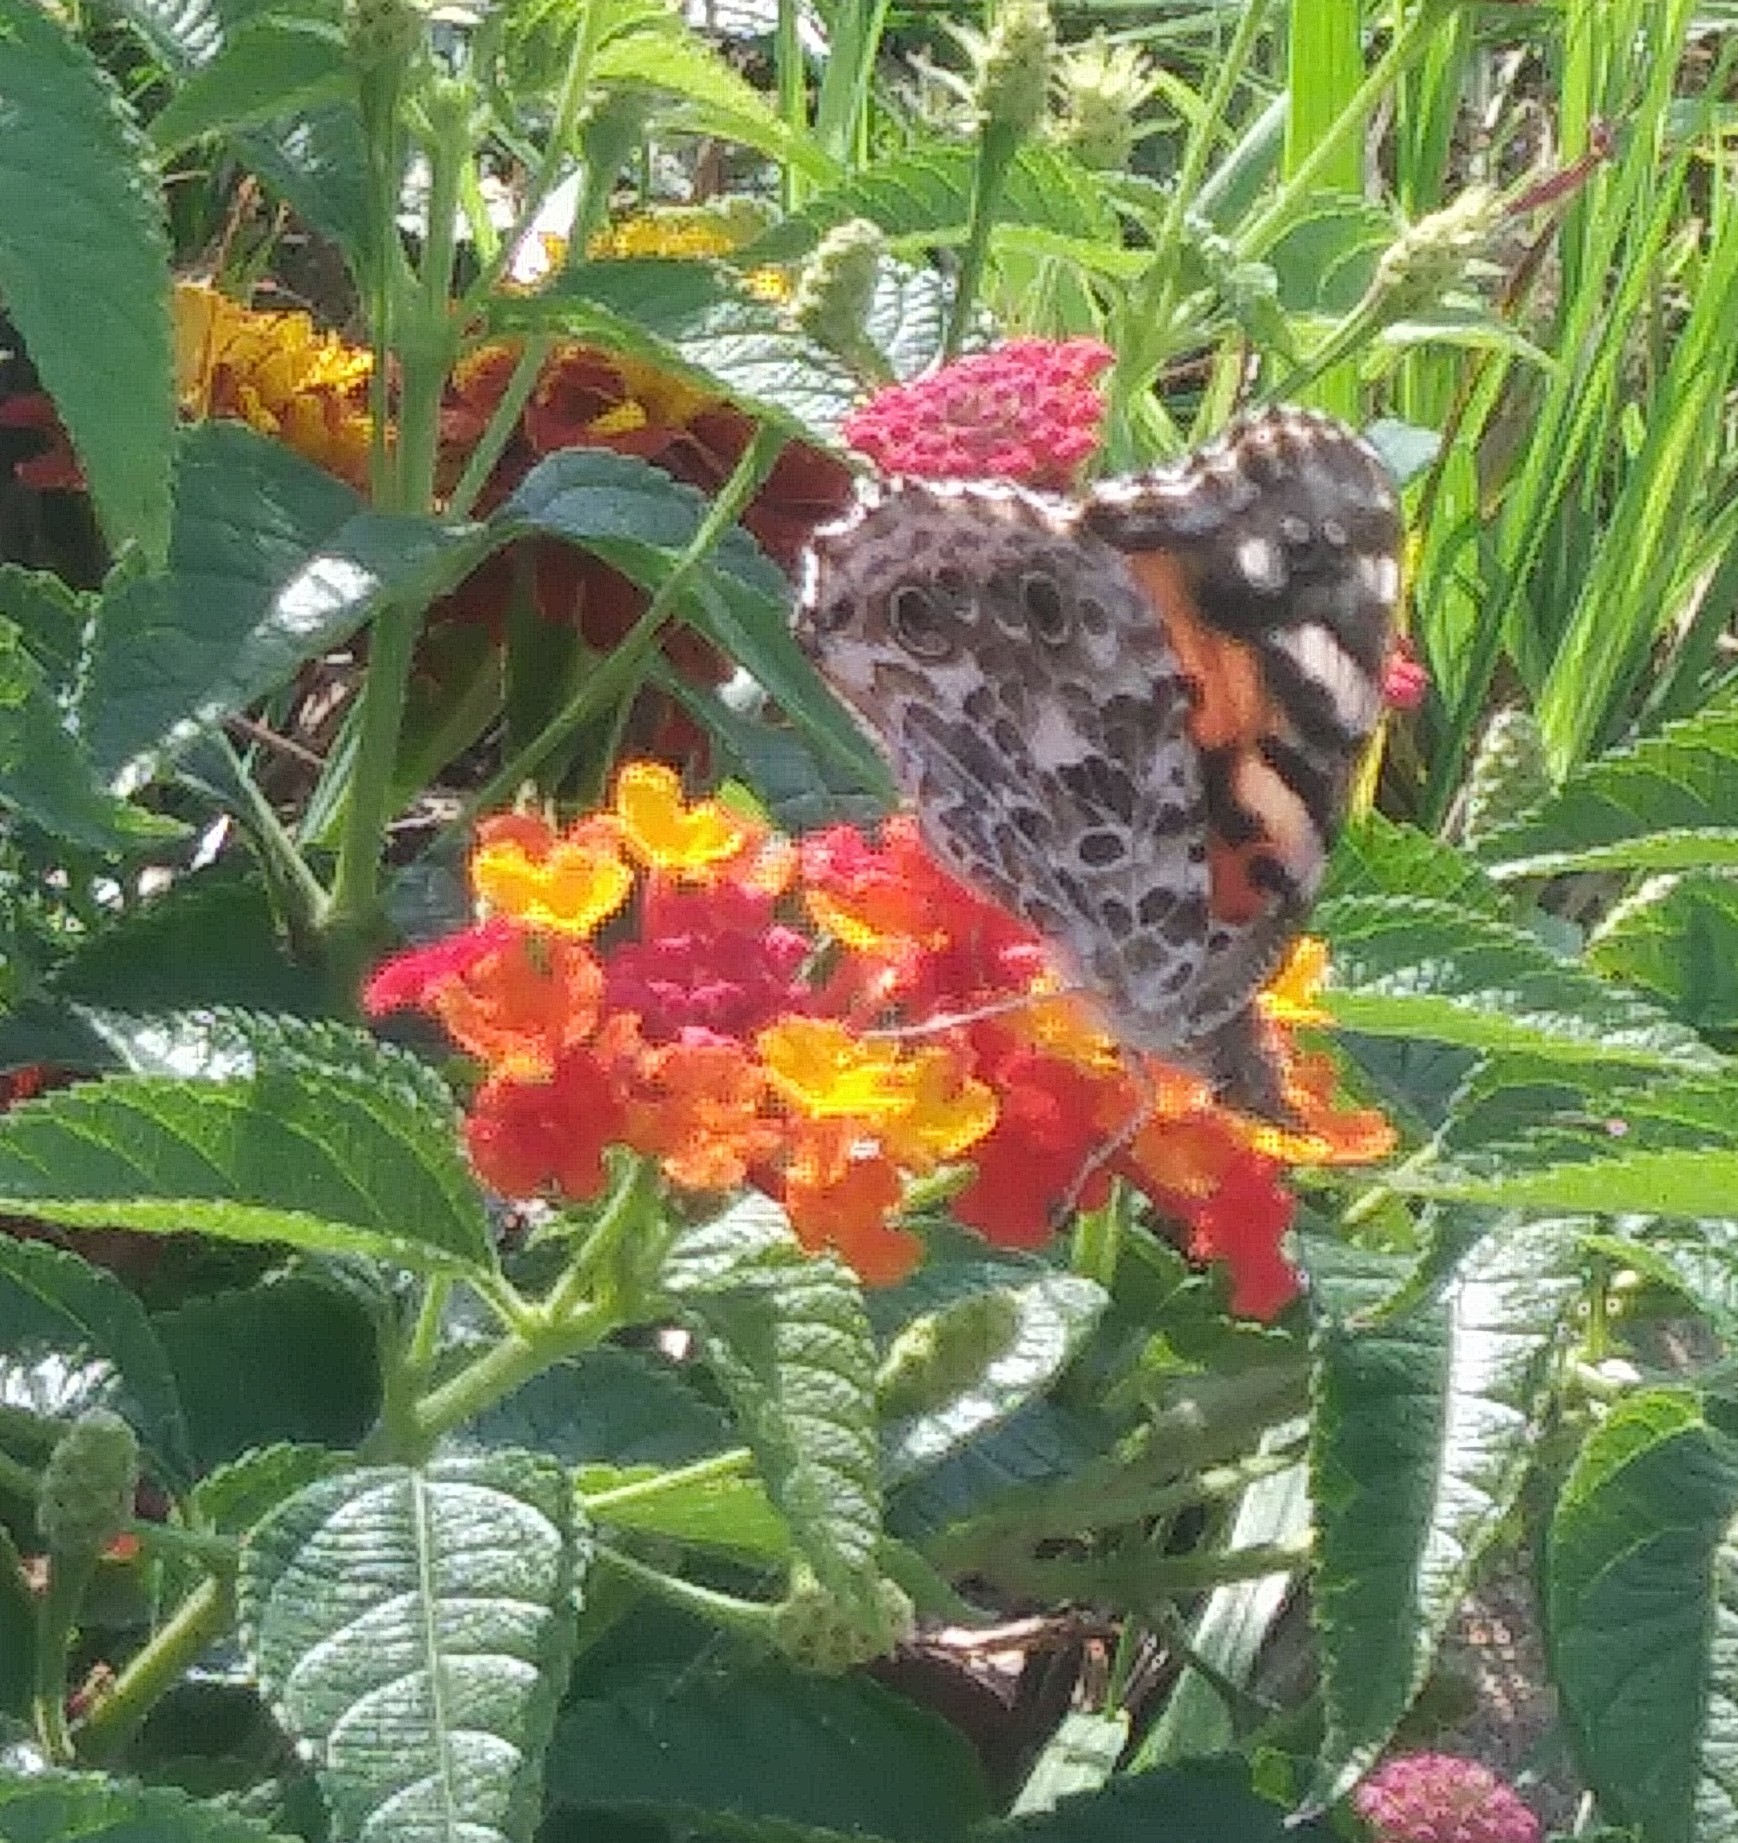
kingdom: Animalia
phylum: Arthropoda
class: Insecta
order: Lepidoptera
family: Nymphalidae
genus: Vanessa
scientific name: Vanessa cardui
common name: Painted lady
